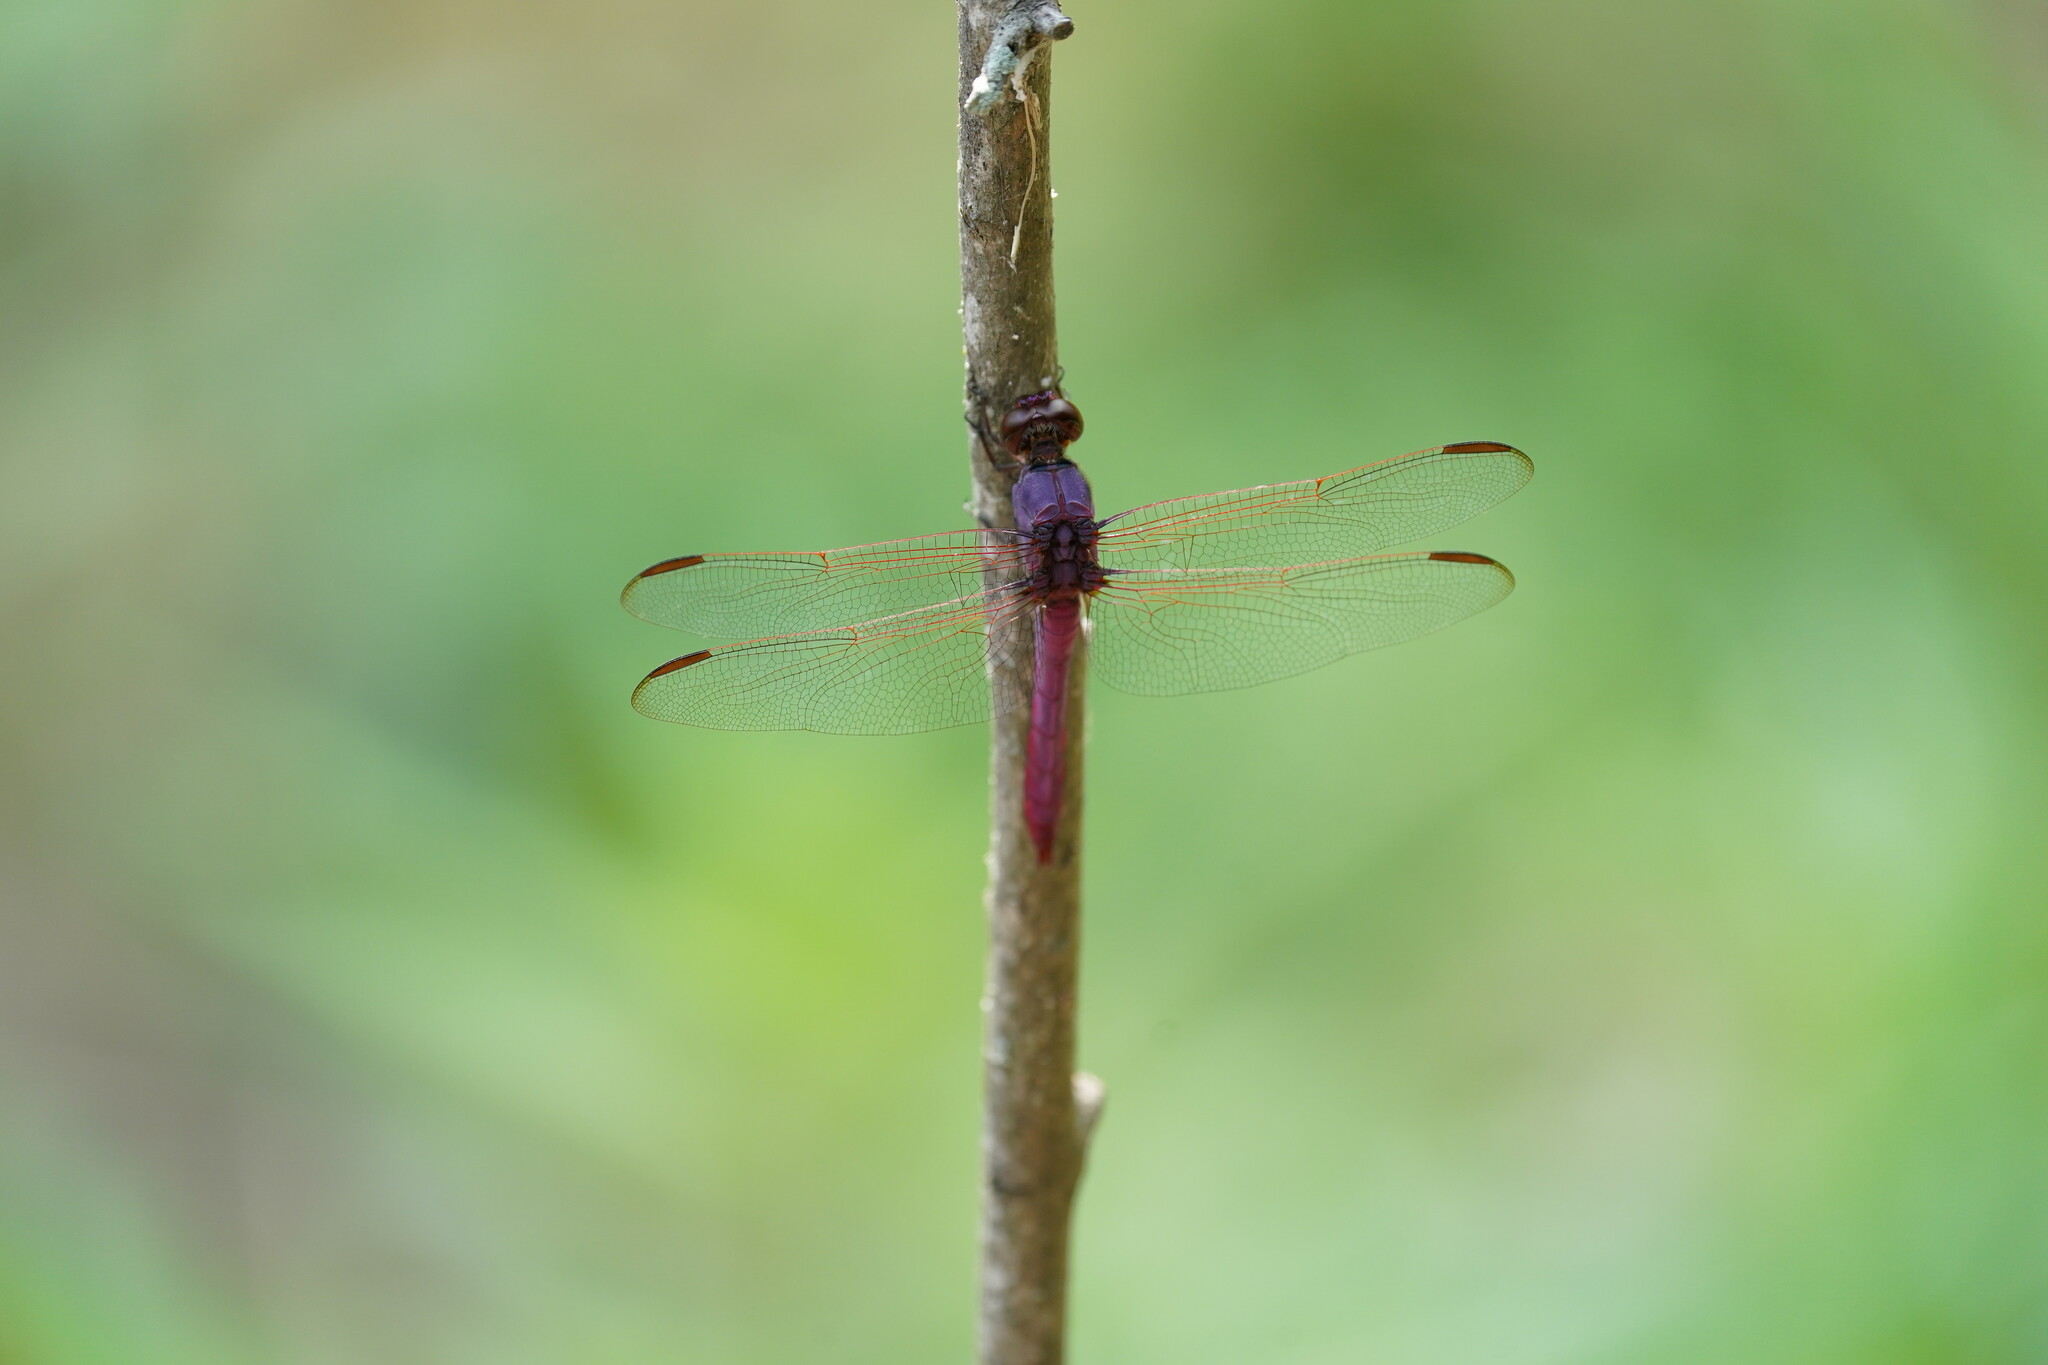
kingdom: Animalia
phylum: Arthropoda
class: Insecta
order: Odonata
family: Libellulidae
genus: Orthemis
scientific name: Orthemis ferruginea
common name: Roseate skimmer
